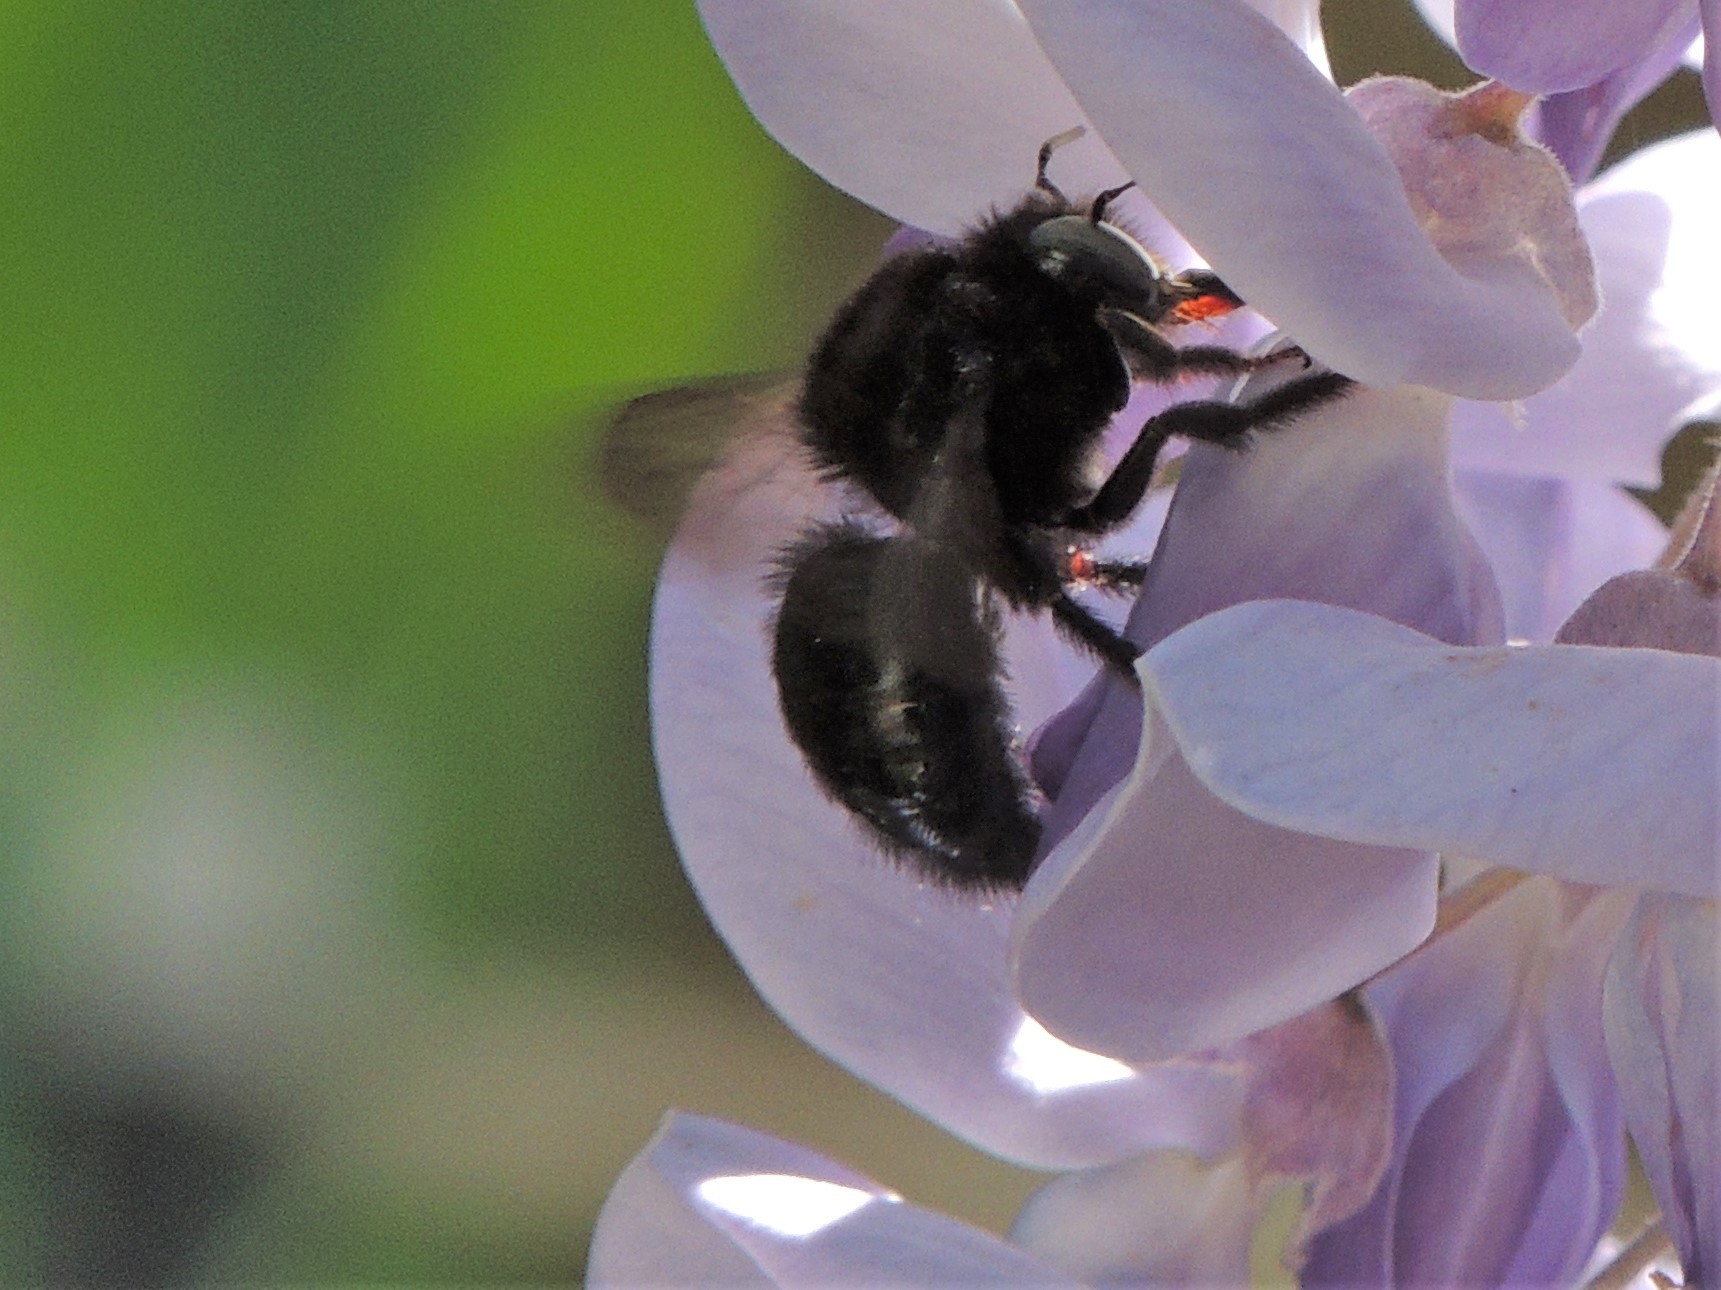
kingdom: Animalia
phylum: Arthropoda
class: Insecta
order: Hymenoptera
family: Apidae
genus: Xylocopa
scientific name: Xylocopa tabaniformis
